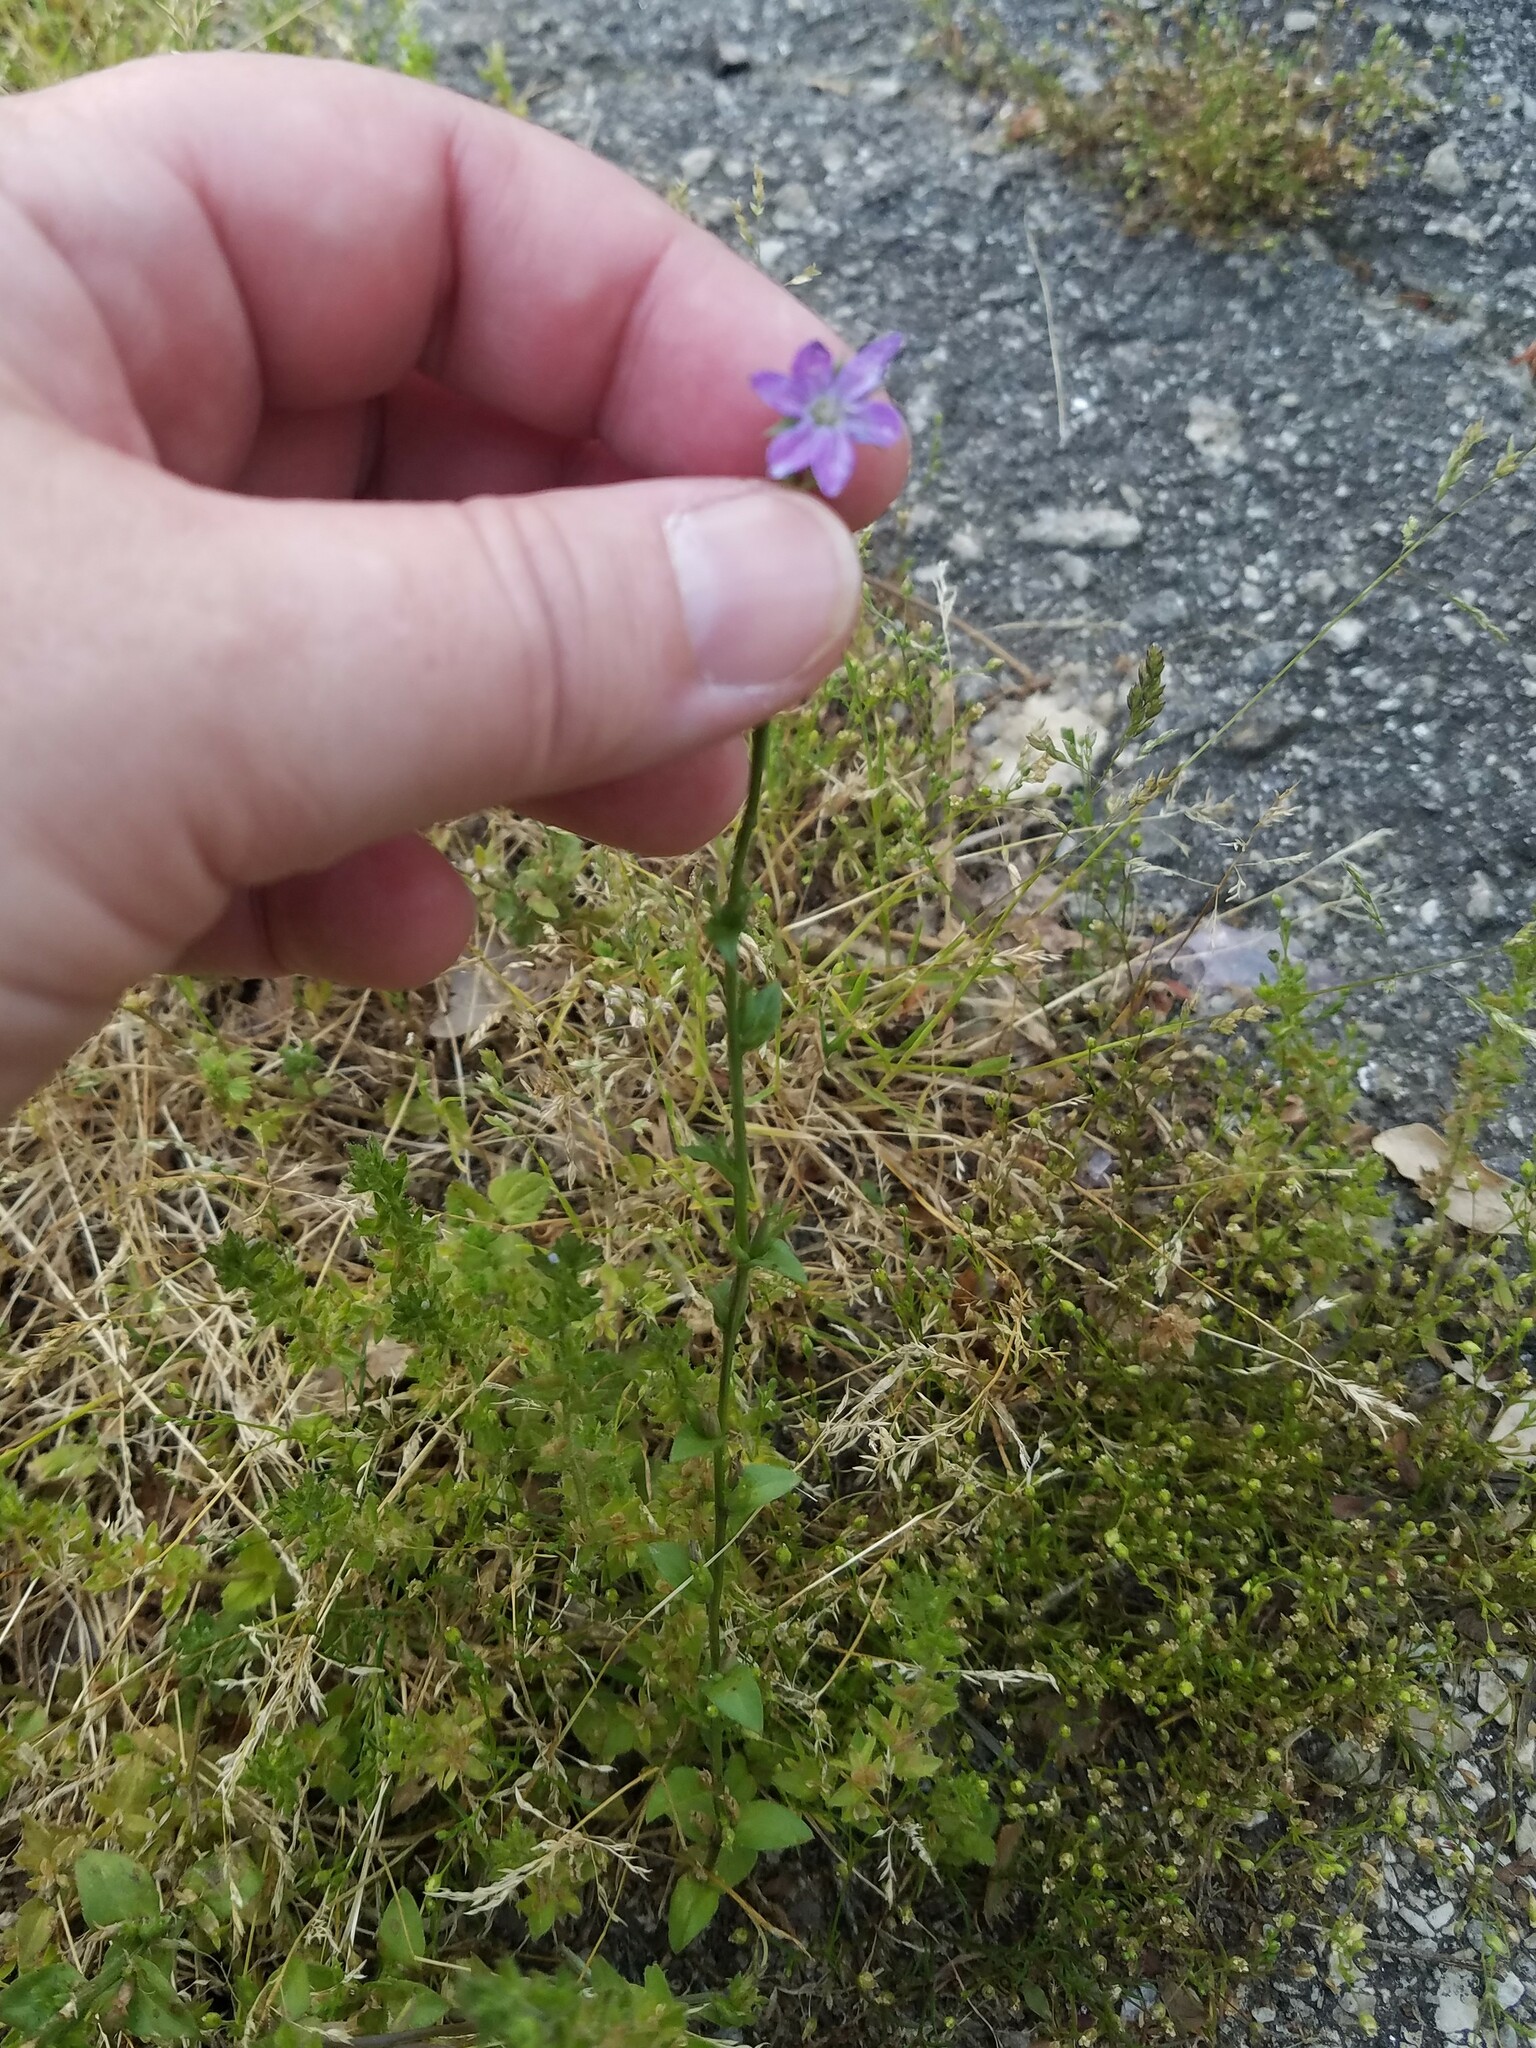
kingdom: Plantae
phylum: Tracheophyta
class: Magnoliopsida
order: Asterales
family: Campanulaceae
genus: Triodanis
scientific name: Triodanis biflora
